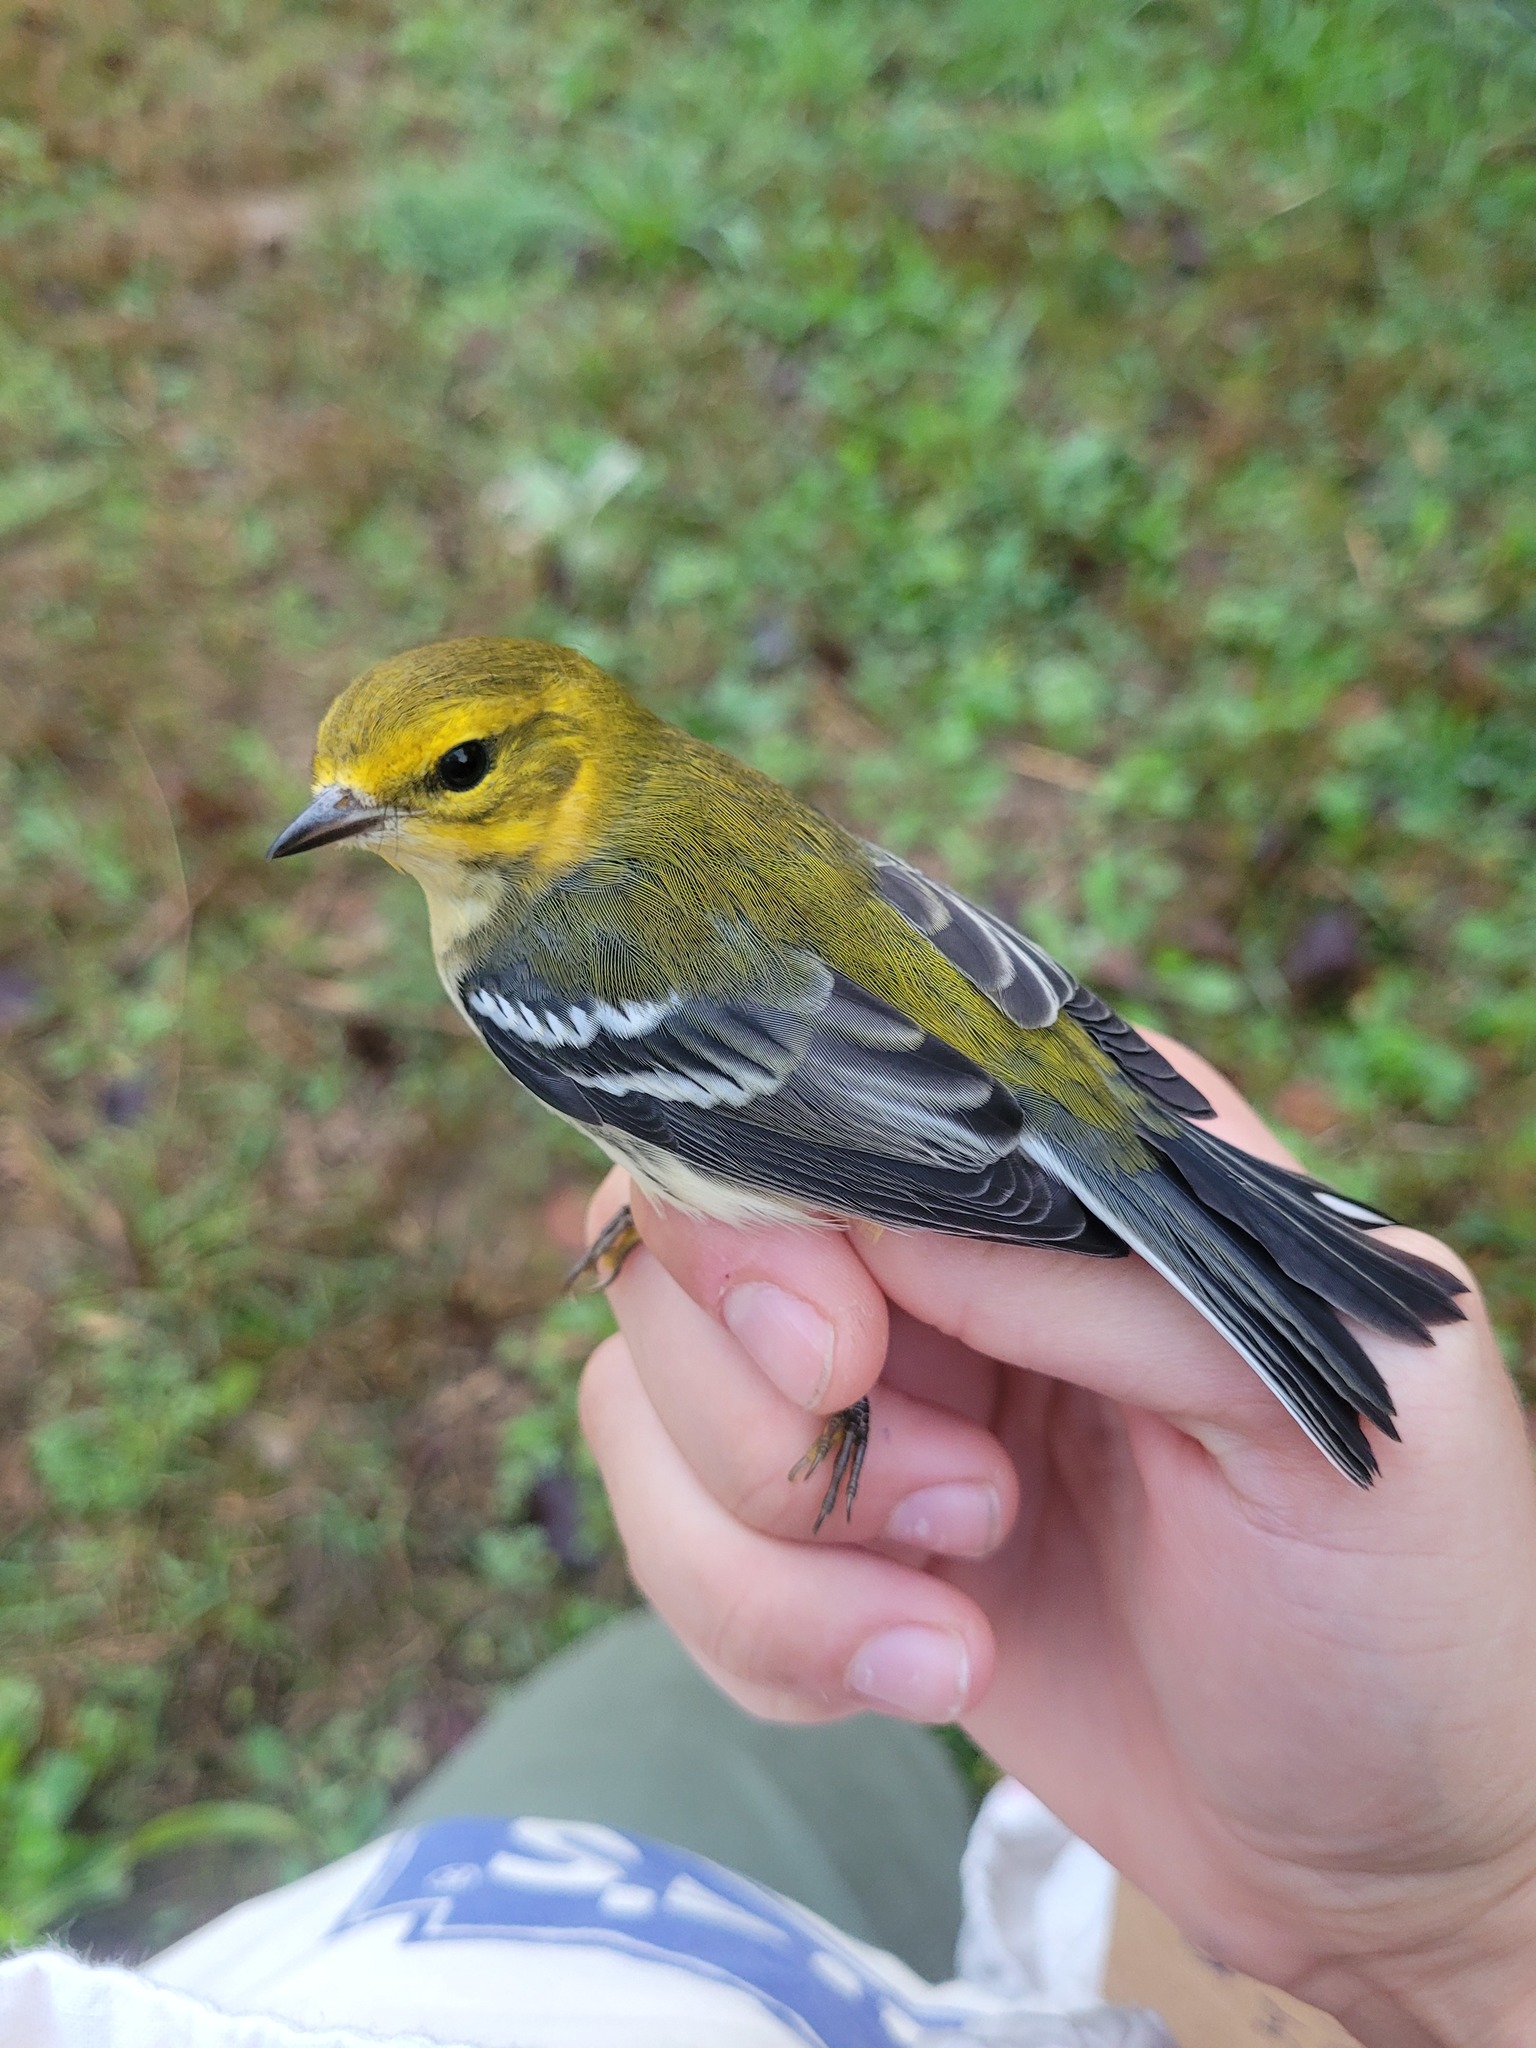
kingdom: Animalia
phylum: Chordata
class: Aves
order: Passeriformes
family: Parulidae
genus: Setophaga
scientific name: Setophaga virens
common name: Black-throated green warbler
